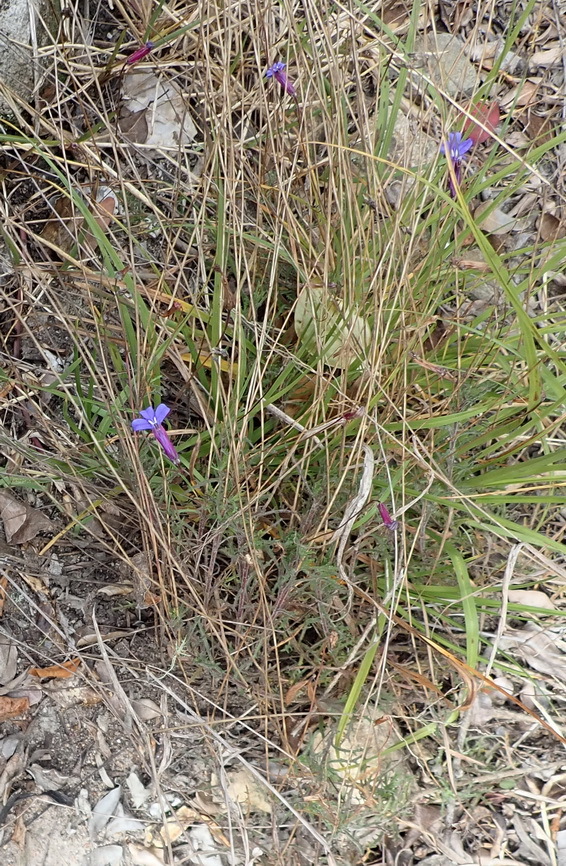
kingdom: Plantae
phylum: Tracheophyta
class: Magnoliopsida
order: Asterales
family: Campanulaceae
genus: Lobelia
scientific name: Lobelia tomentosa
